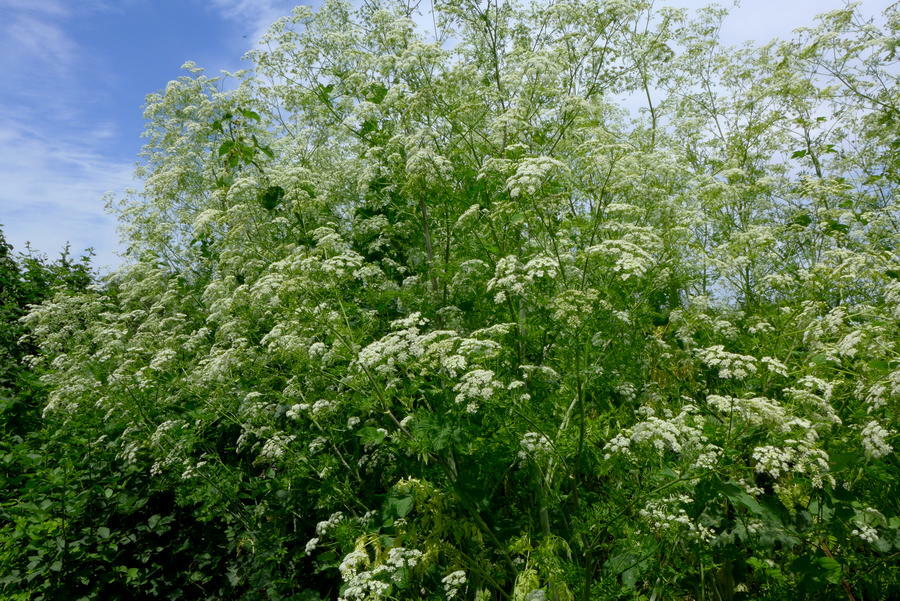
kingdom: Plantae
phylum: Tracheophyta
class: Magnoliopsida
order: Apiales
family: Apiaceae
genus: Conium
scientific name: Conium maculatum
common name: Hemlock
